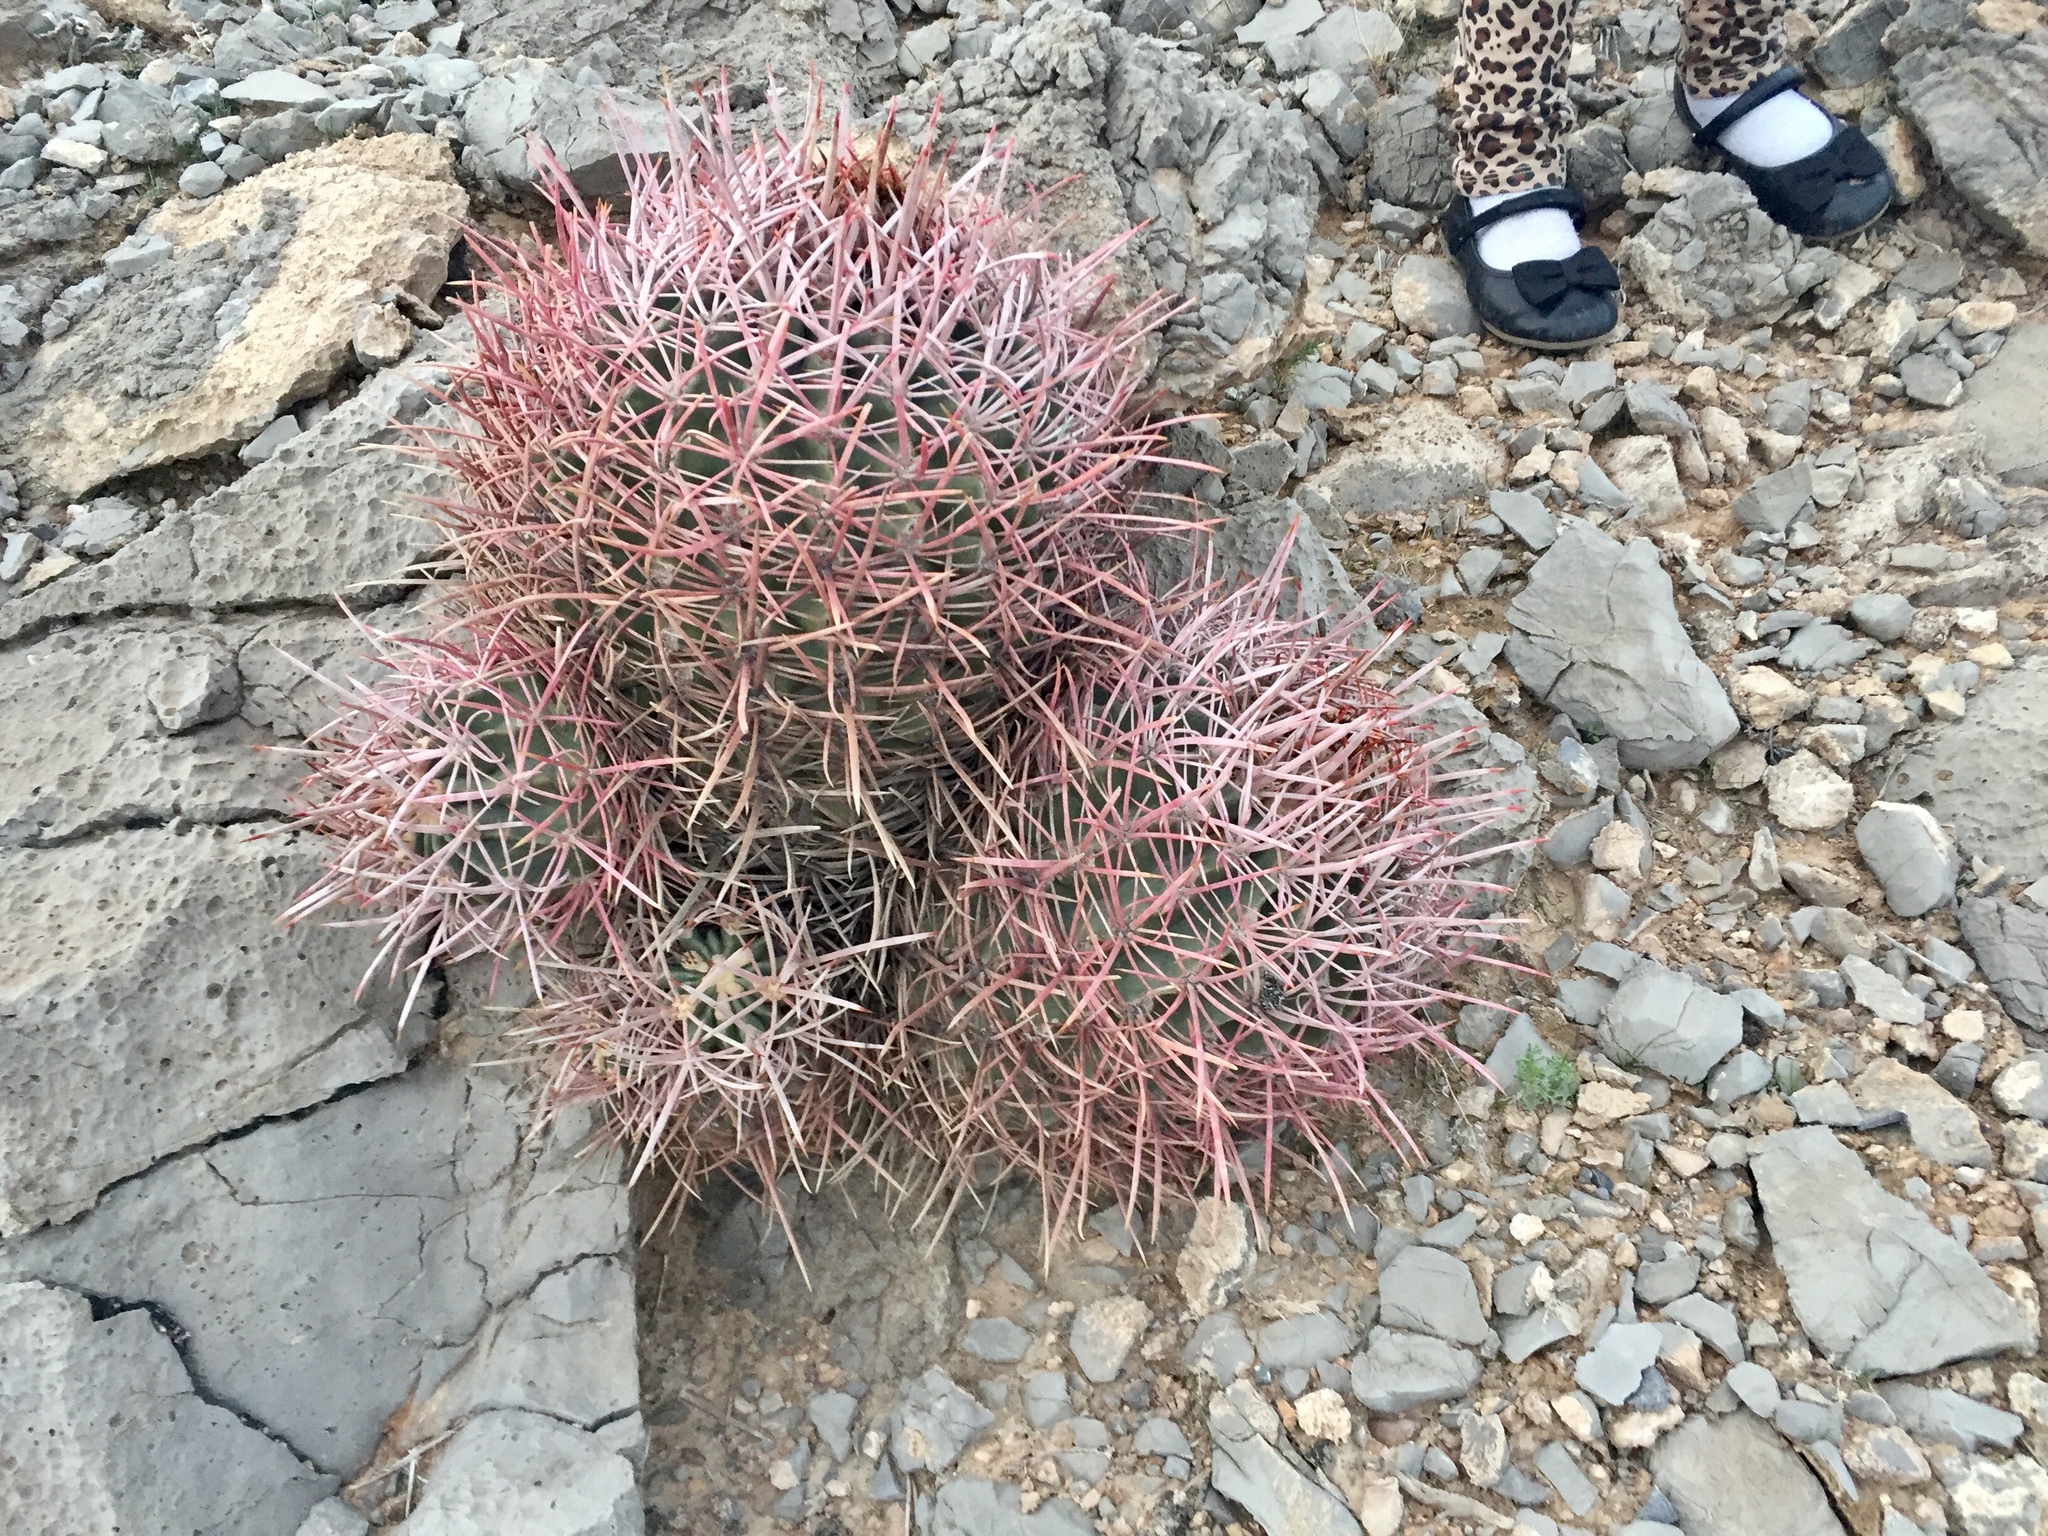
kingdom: Plantae
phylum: Tracheophyta
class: Magnoliopsida
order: Caryophyllales
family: Cactaceae
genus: Echinocactus
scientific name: Echinocactus polycephalus
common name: Cottontop cactus
